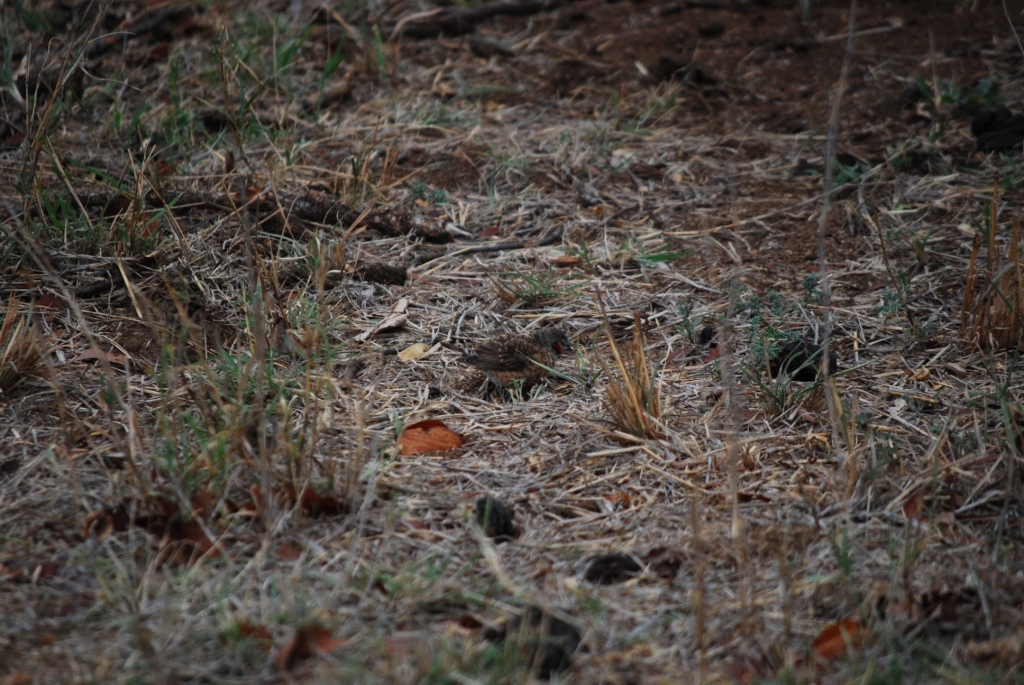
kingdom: Animalia
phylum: Chordata
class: Aves
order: Passeriformes
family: Estrildidae
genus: Amadina
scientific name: Amadina fasciata
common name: Cut-throat finch
